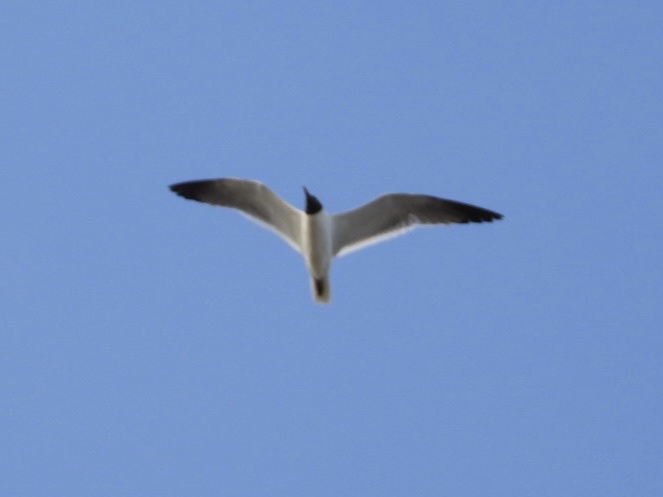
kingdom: Animalia
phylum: Chordata
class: Aves
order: Charadriiformes
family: Laridae
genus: Leucophaeus
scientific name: Leucophaeus atricilla
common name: Laughing gull
